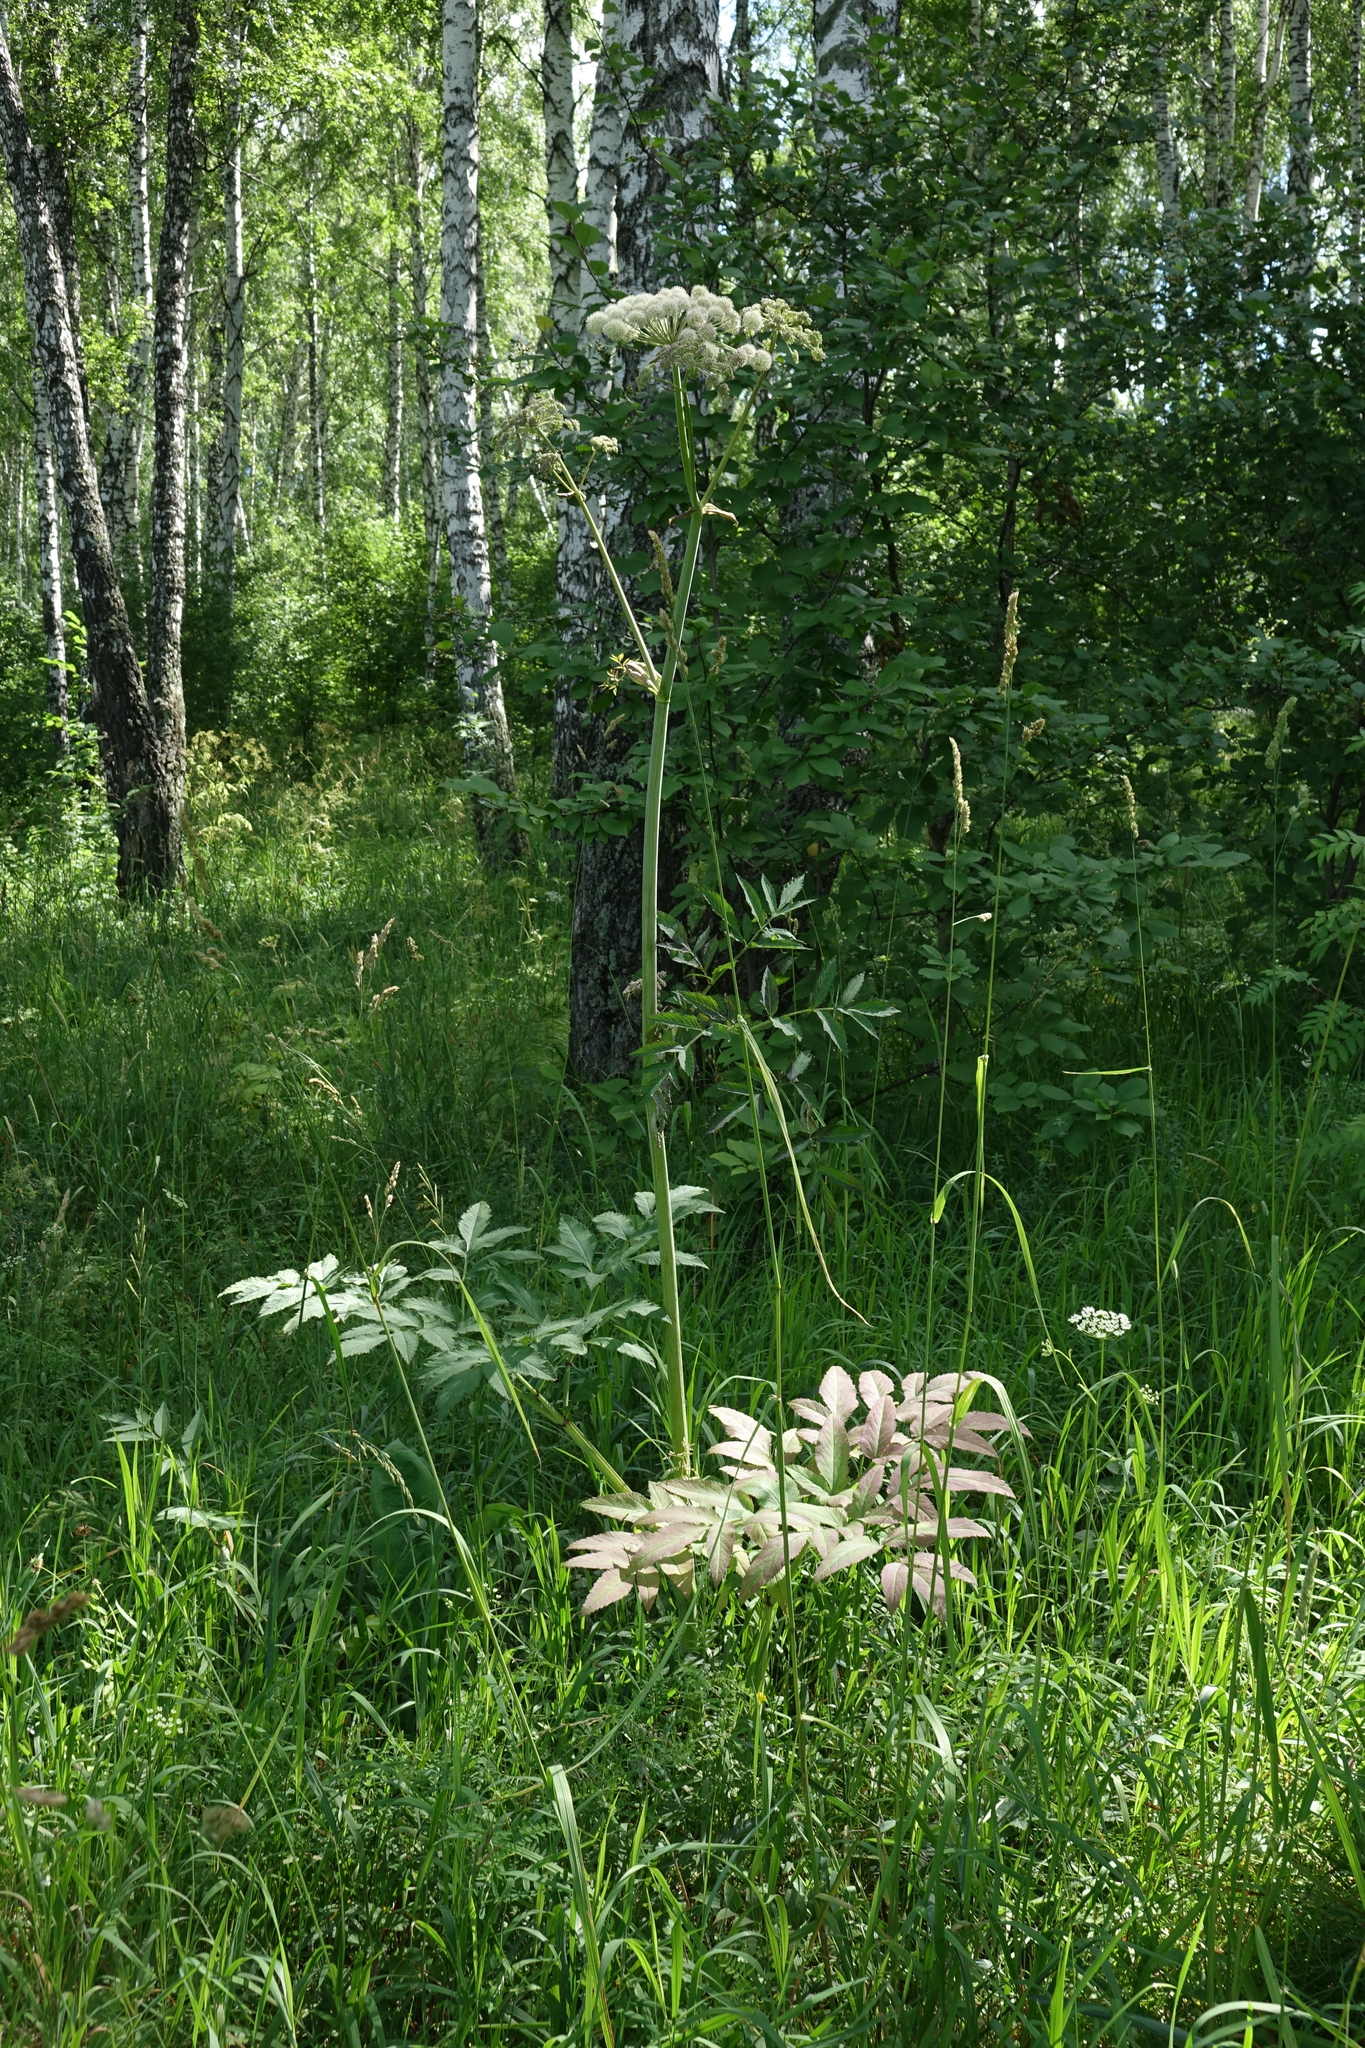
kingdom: Plantae
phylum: Tracheophyta
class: Magnoliopsida
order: Apiales
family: Apiaceae
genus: Angelica
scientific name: Angelica sylvestris
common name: Wild angelica
